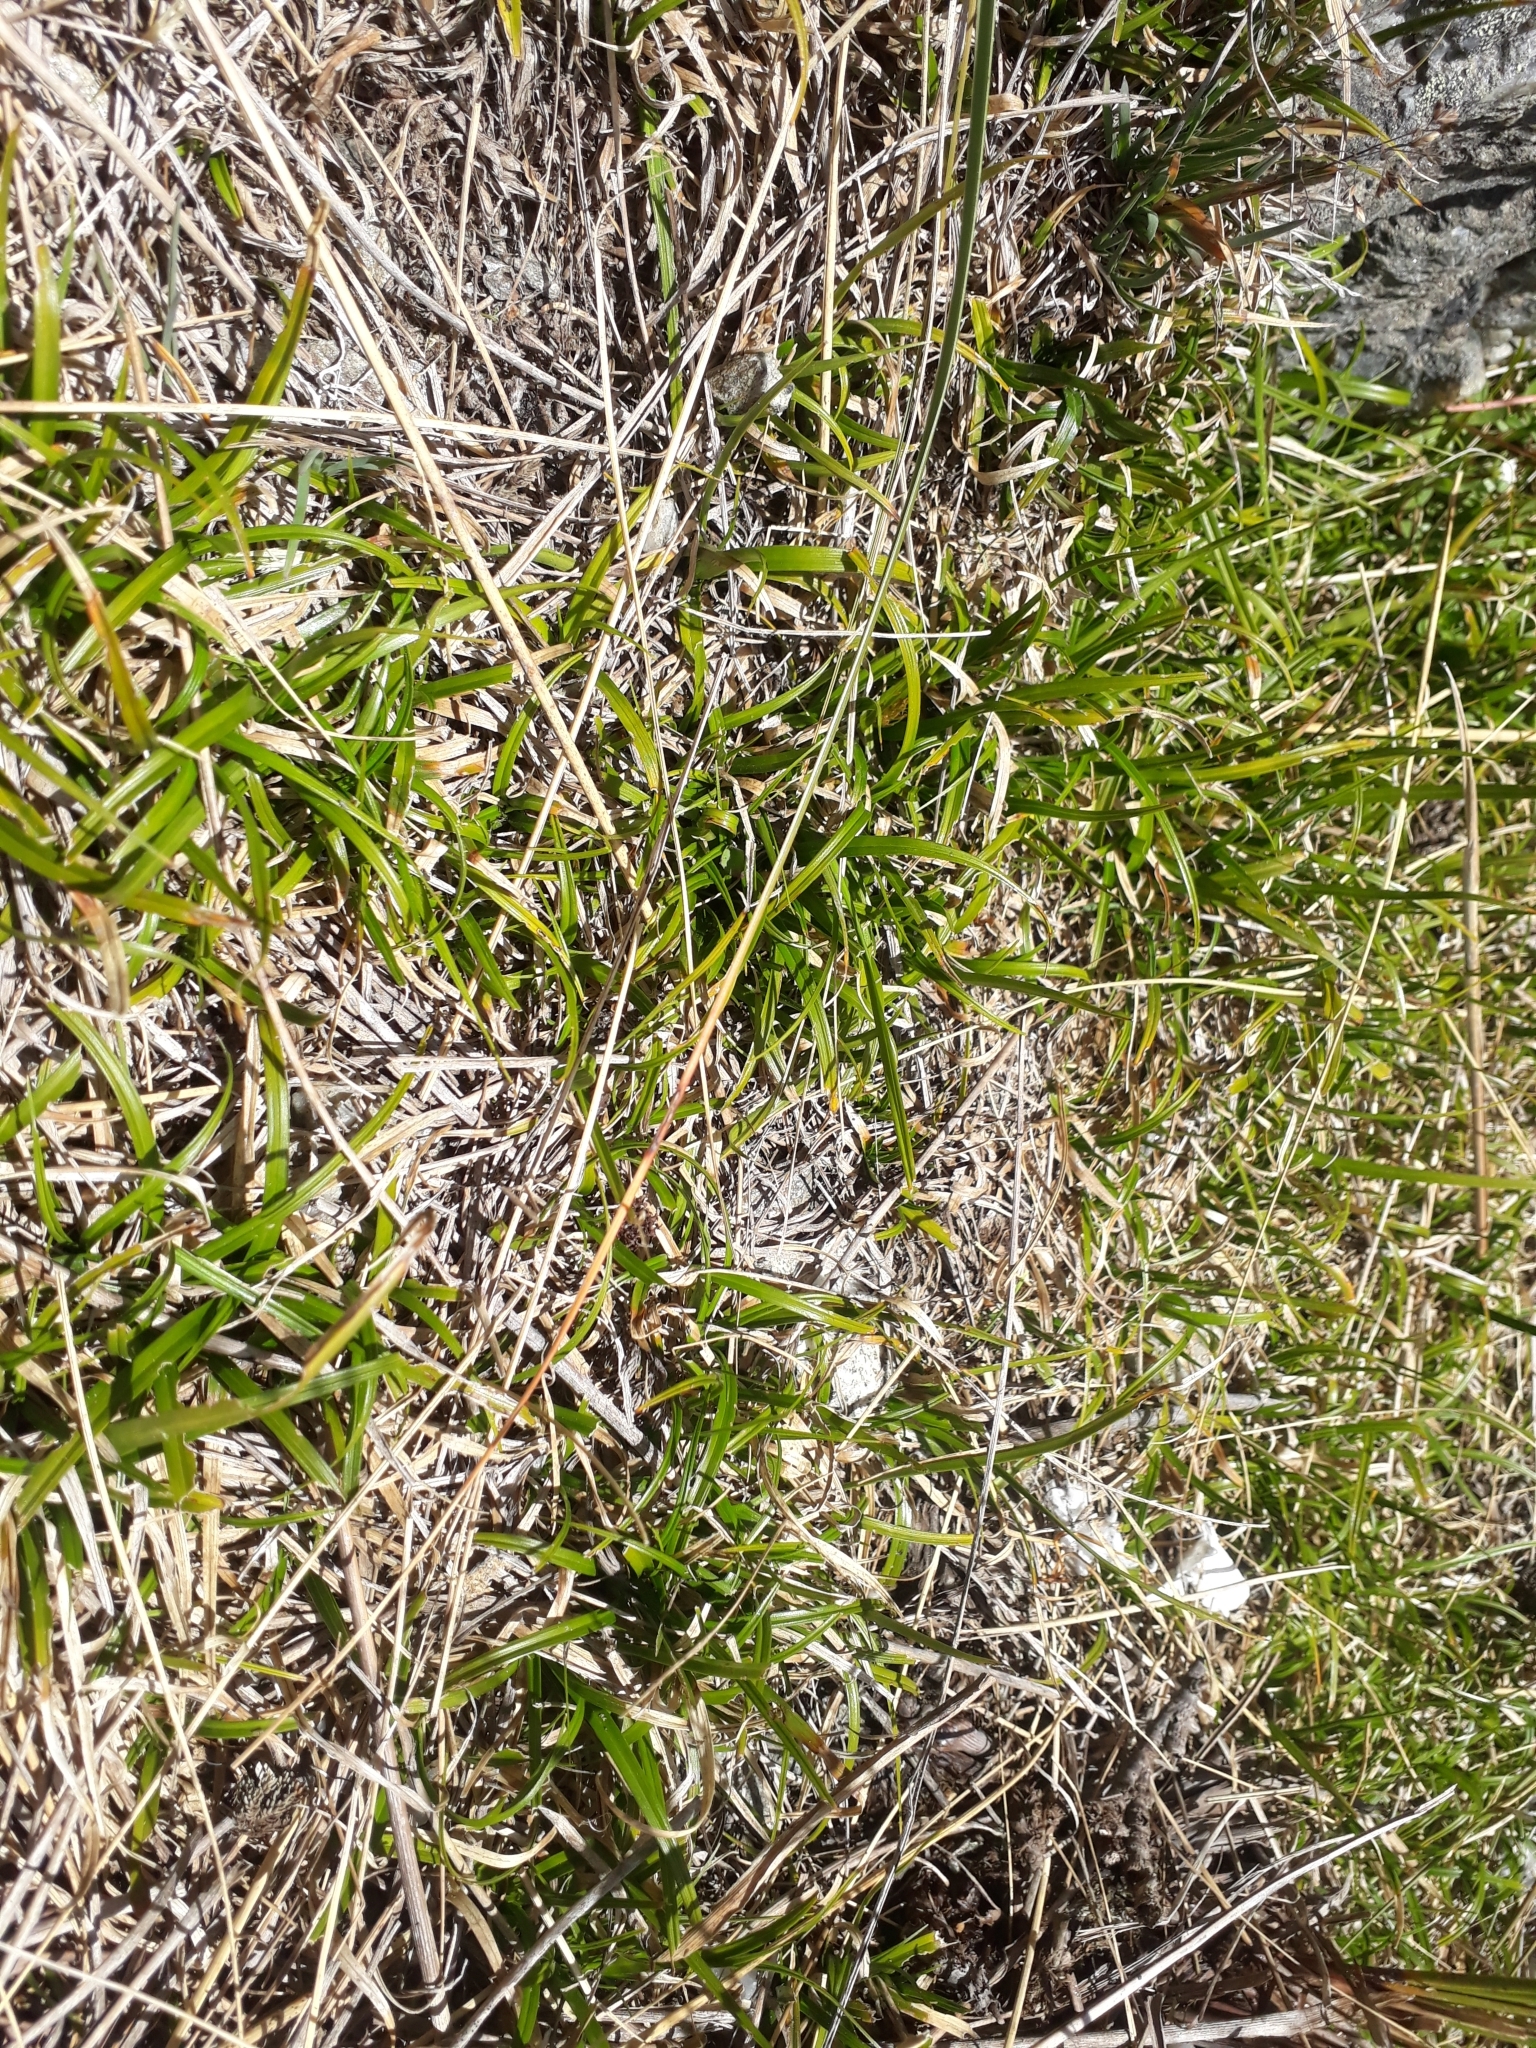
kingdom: Plantae
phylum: Tracheophyta
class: Liliopsida
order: Poales
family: Cyperaceae
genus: Carex
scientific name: Carex breviculmis
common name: Asian shortstem sedge
